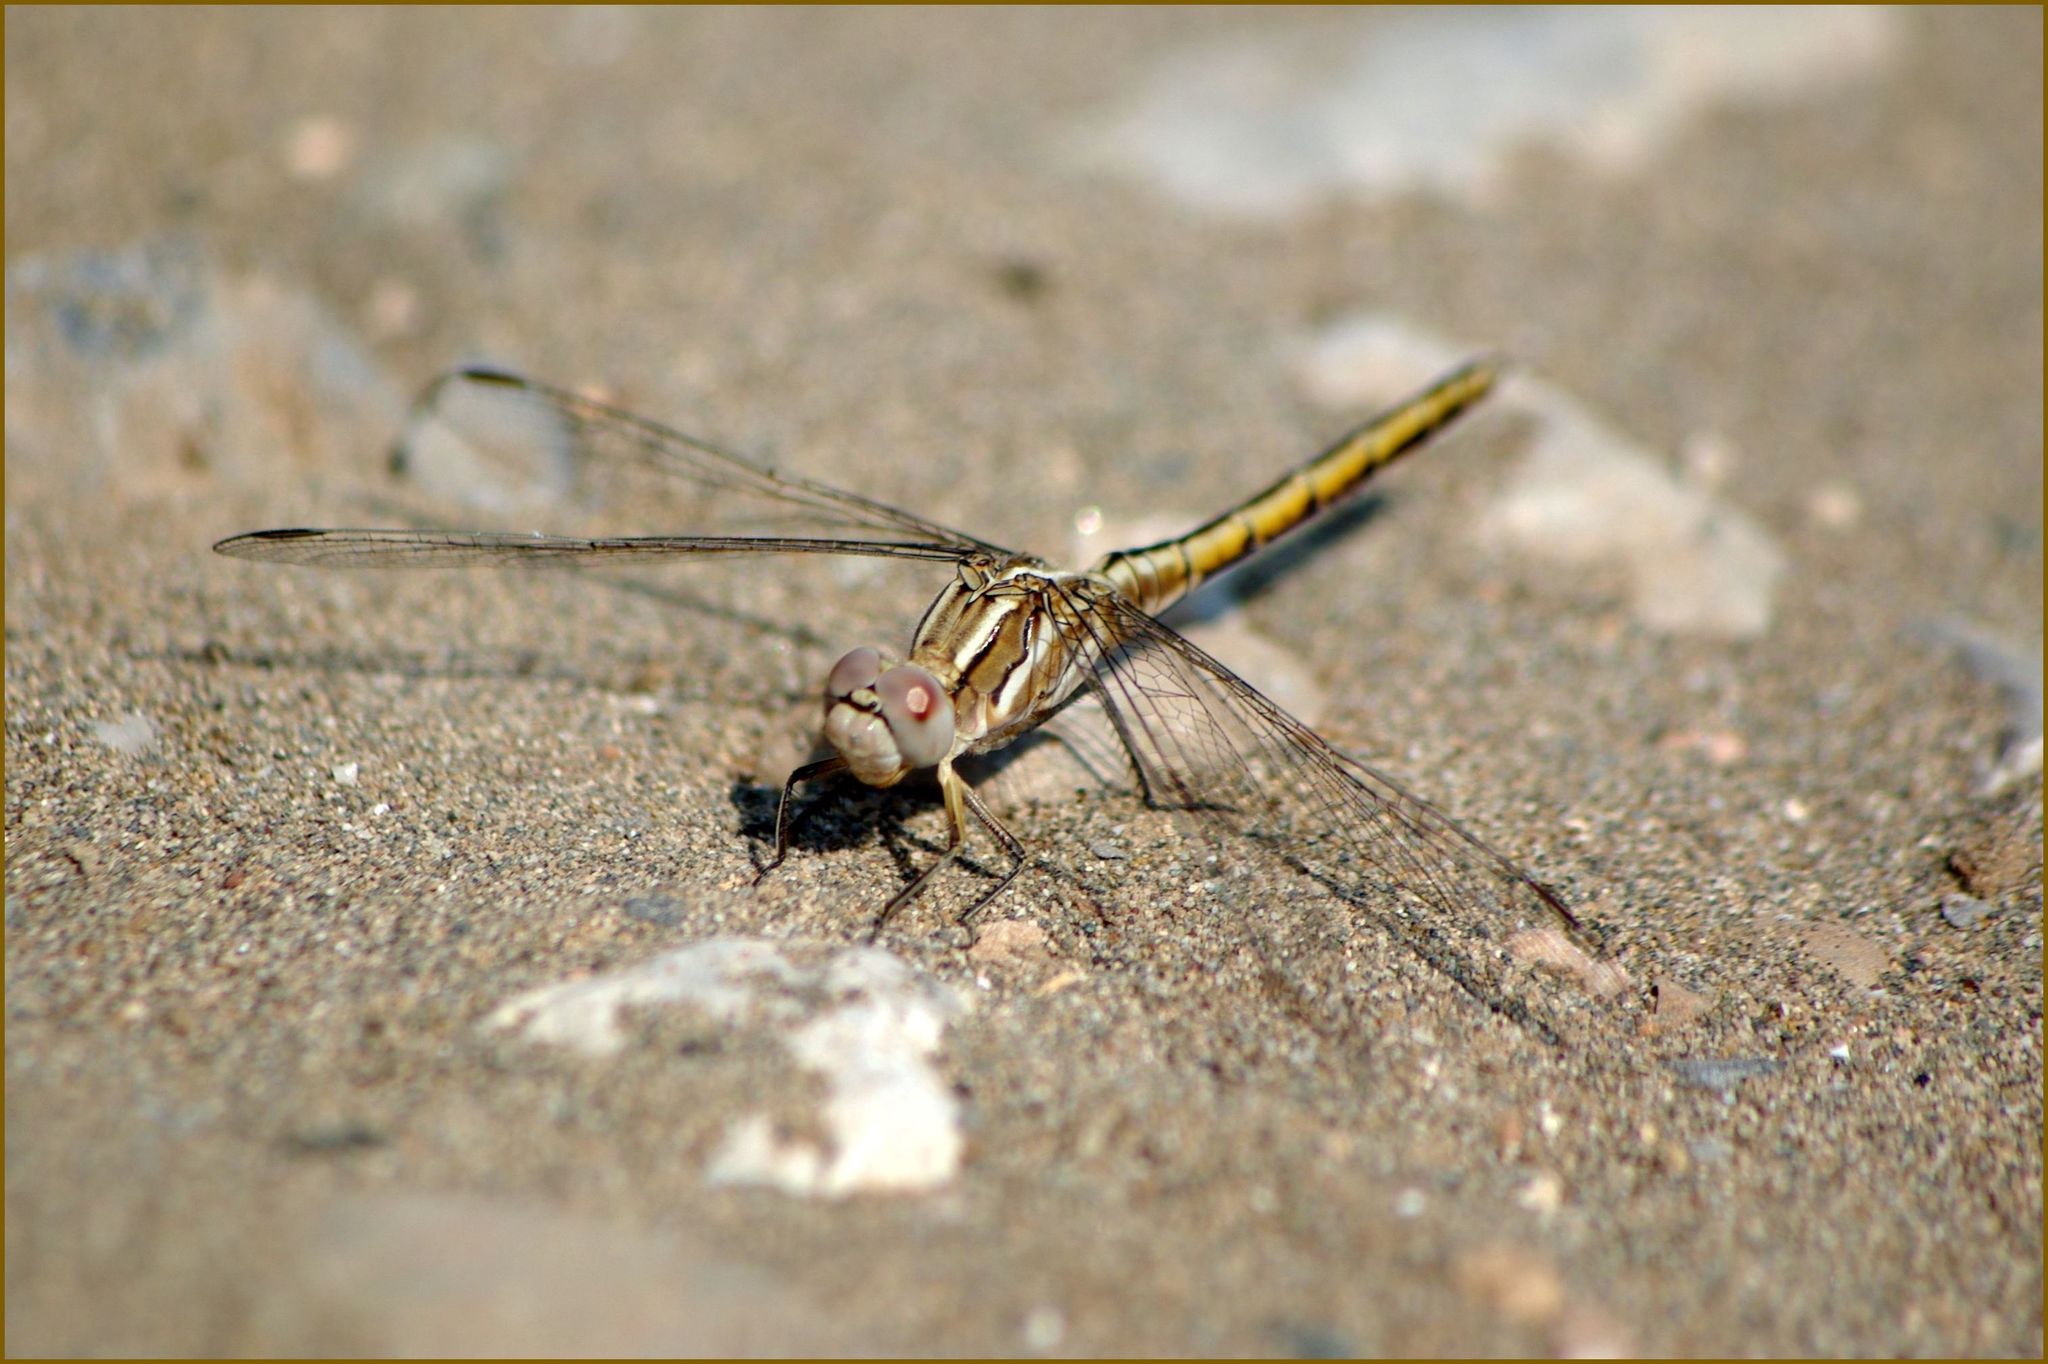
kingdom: Animalia
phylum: Arthropoda
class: Insecta
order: Odonata
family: Libellulidae
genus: Orthetrum
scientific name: Orthetrum taeniolatum
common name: Small skimmer
